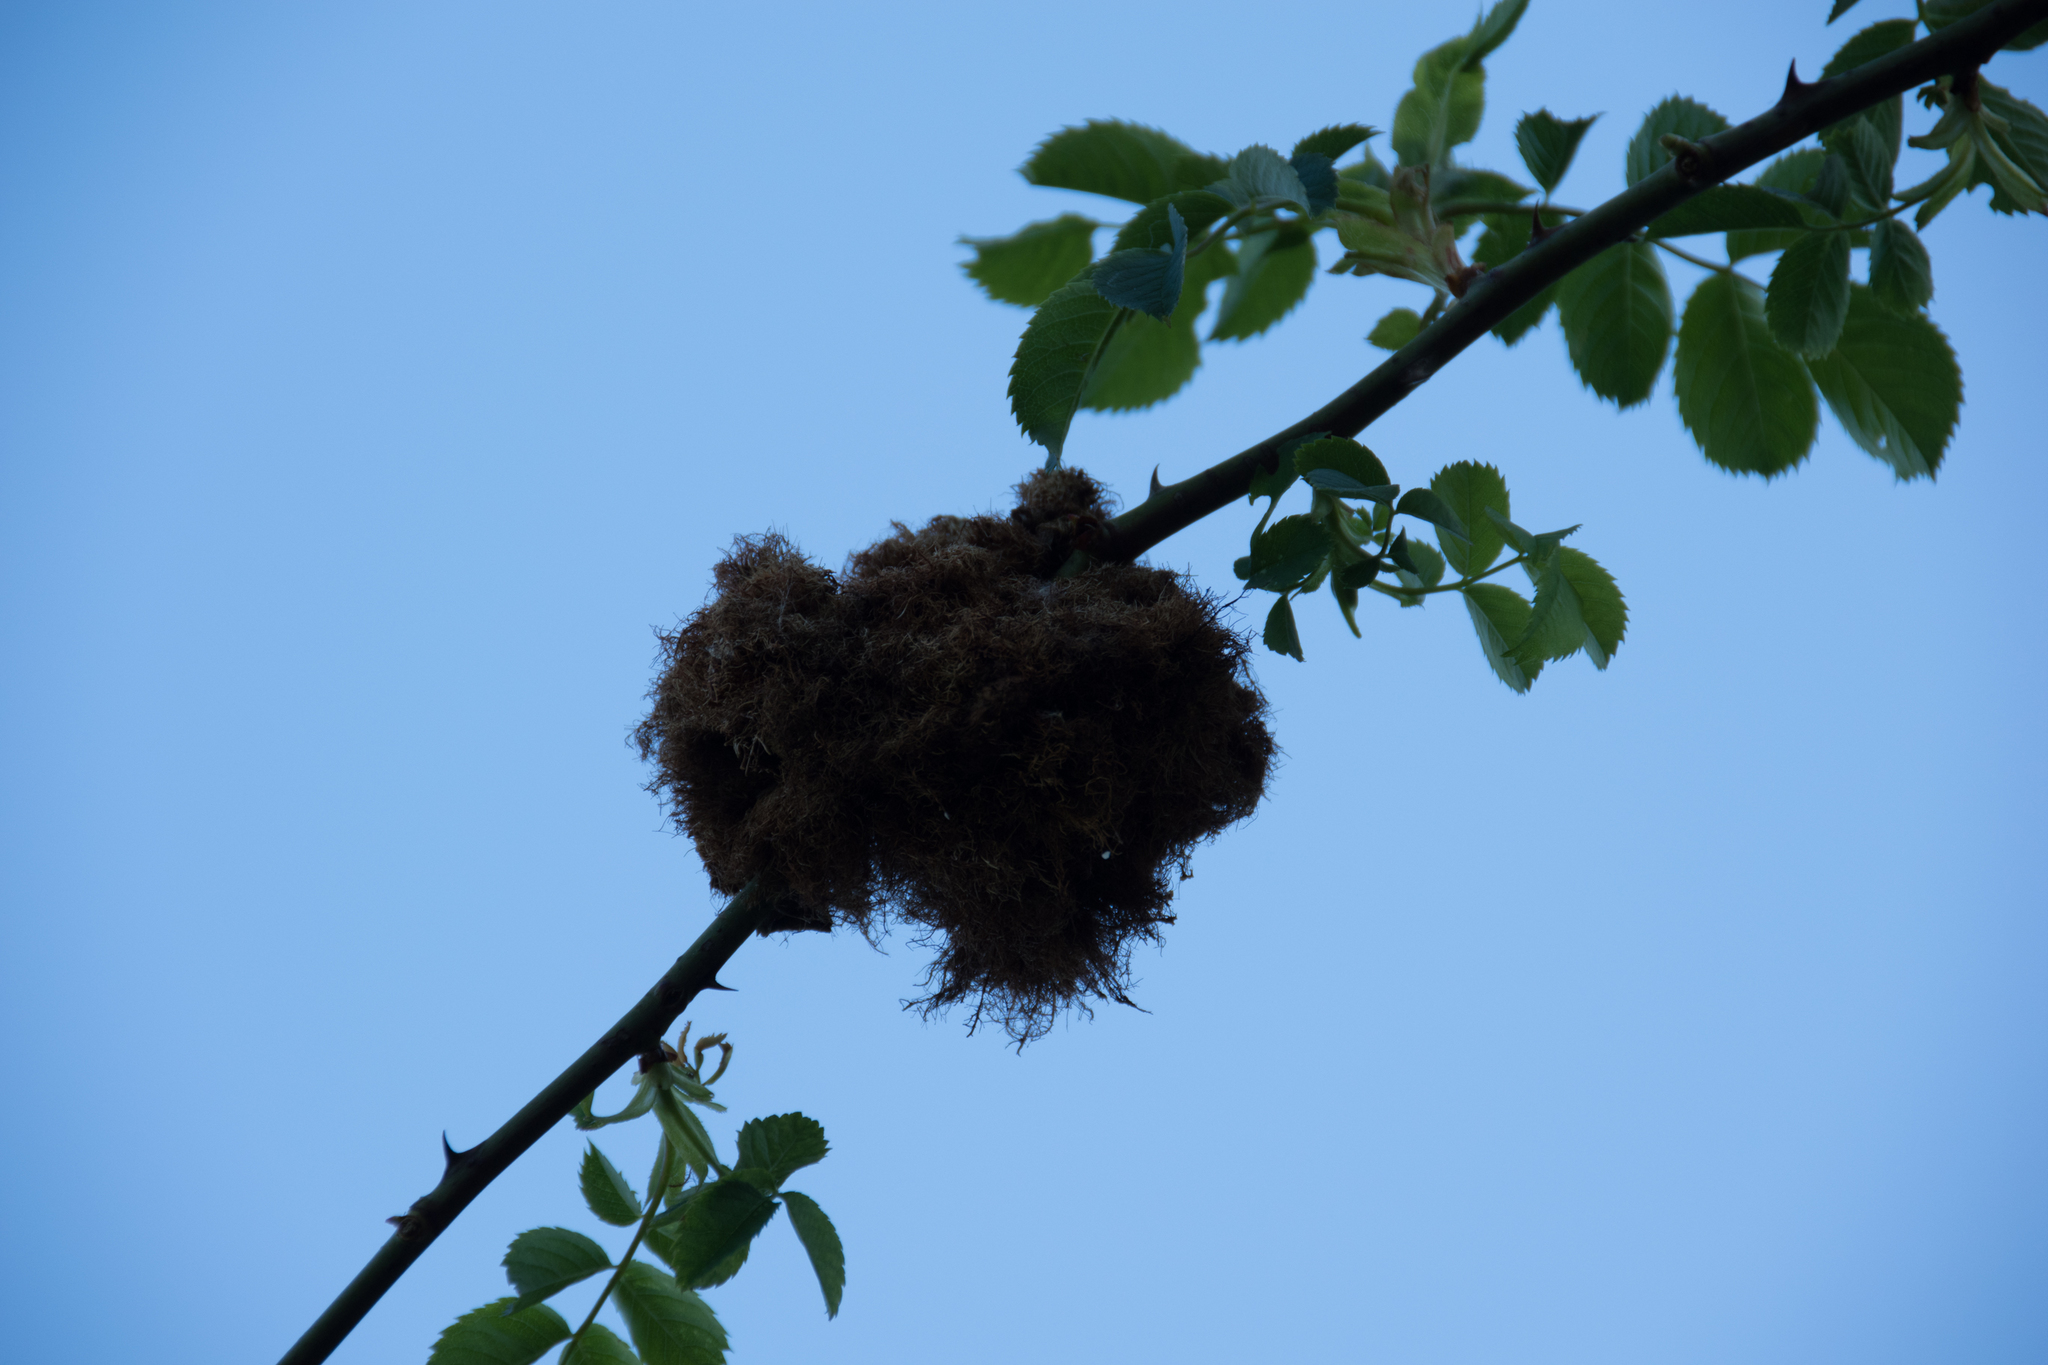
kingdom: Animalia
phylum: Arthropoda
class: Insecta
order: Hymenoptera
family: Cynipidae
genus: Diplolepis
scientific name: Diplolepis rosae
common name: Bedeguar gall
